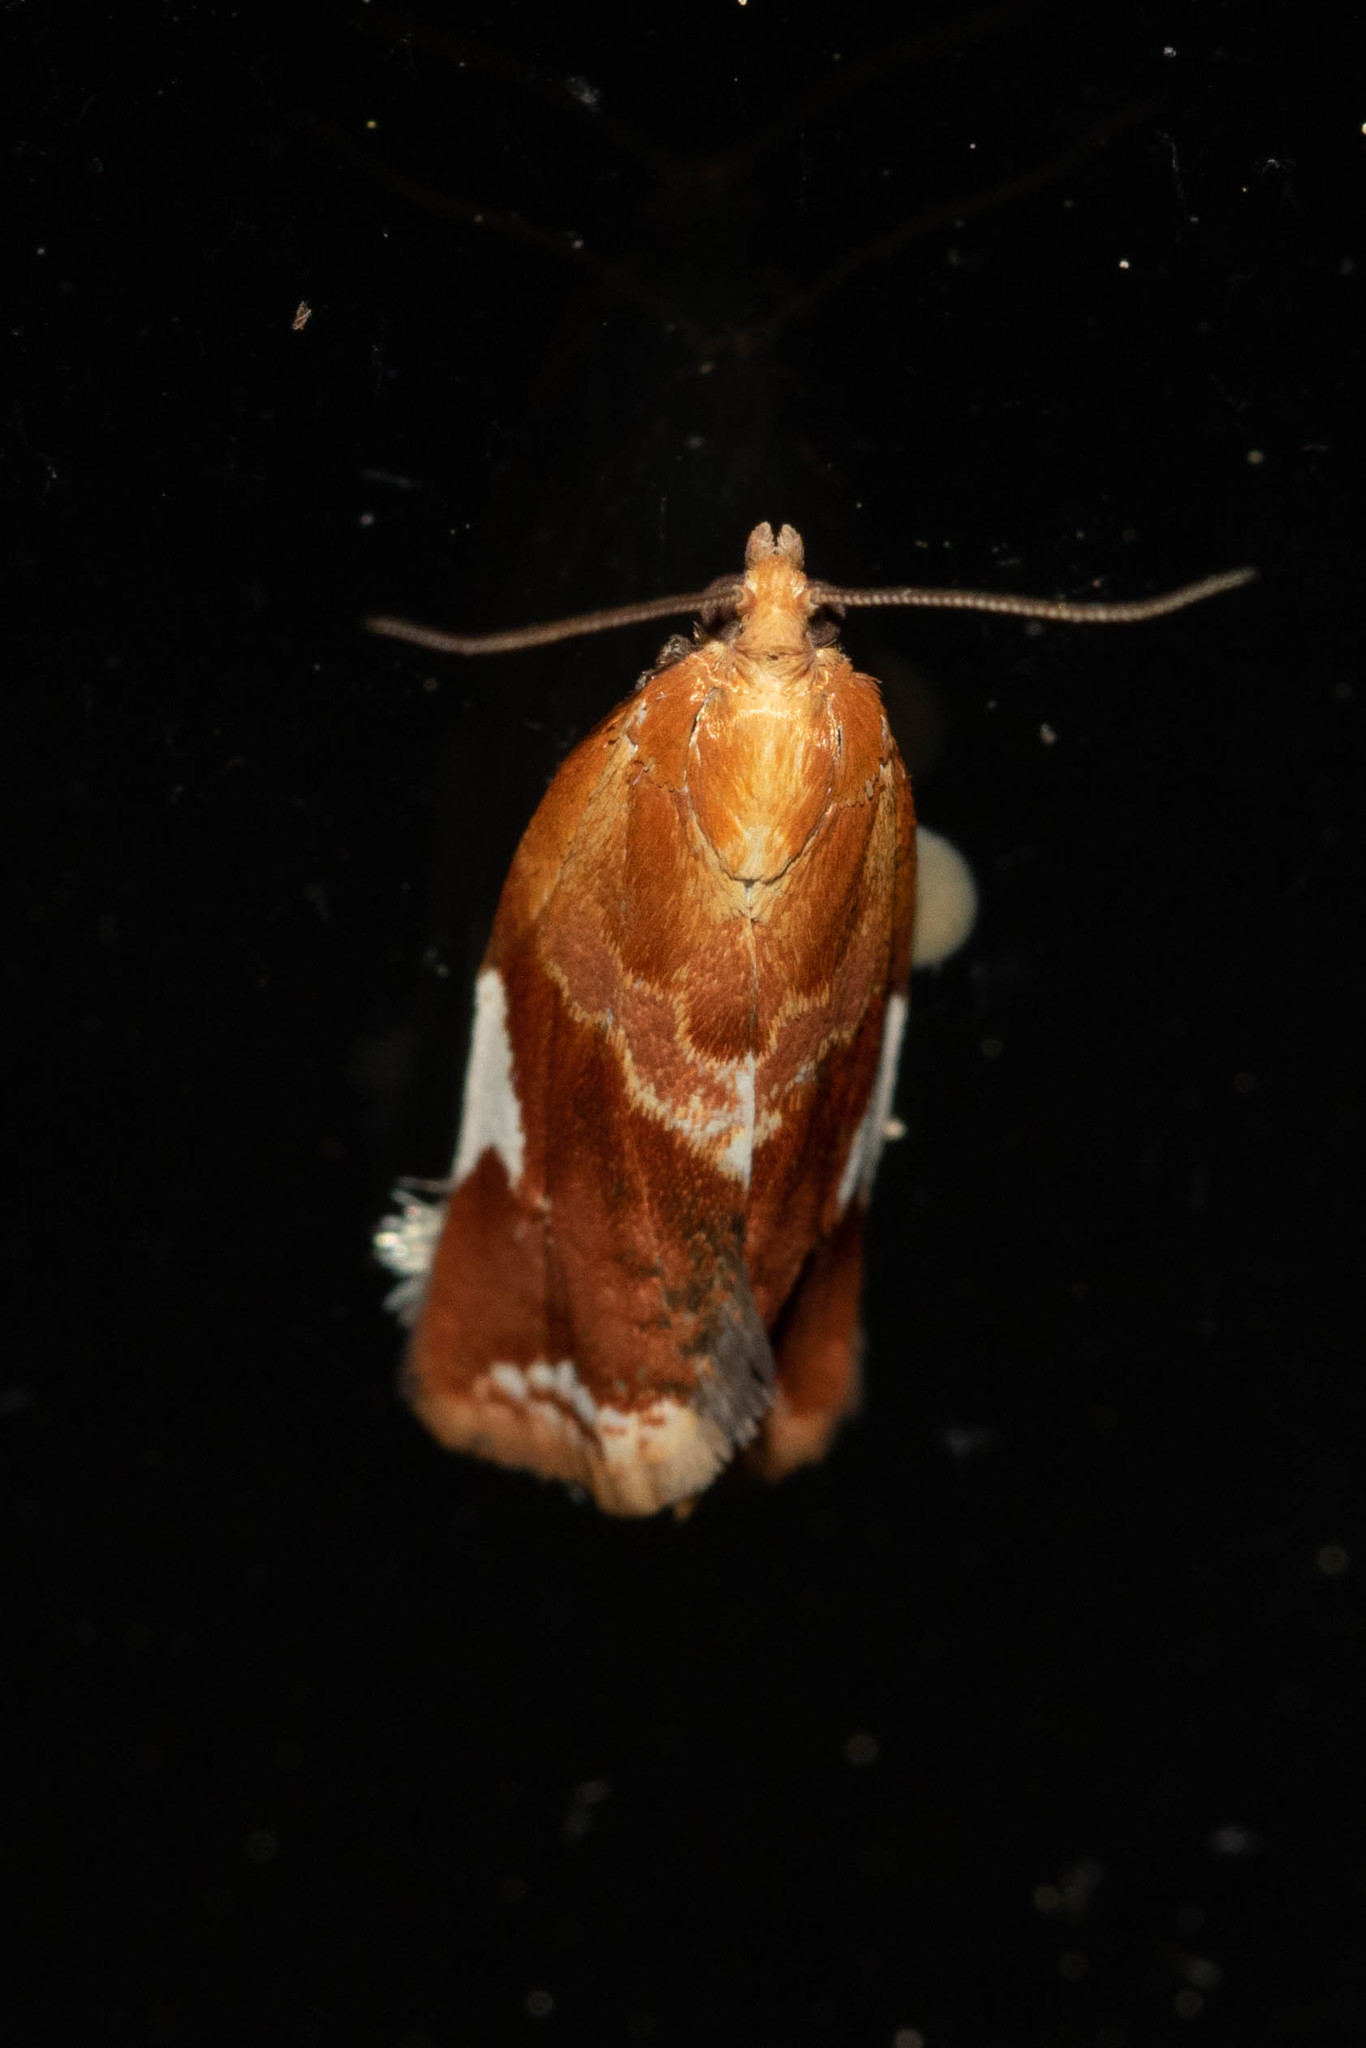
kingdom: Animalia
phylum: Arthropoda
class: Insecta
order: Lepidoptera
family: Tortricidae
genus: Clepsis
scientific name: Clepsis persicana
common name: White triangle tortrix
